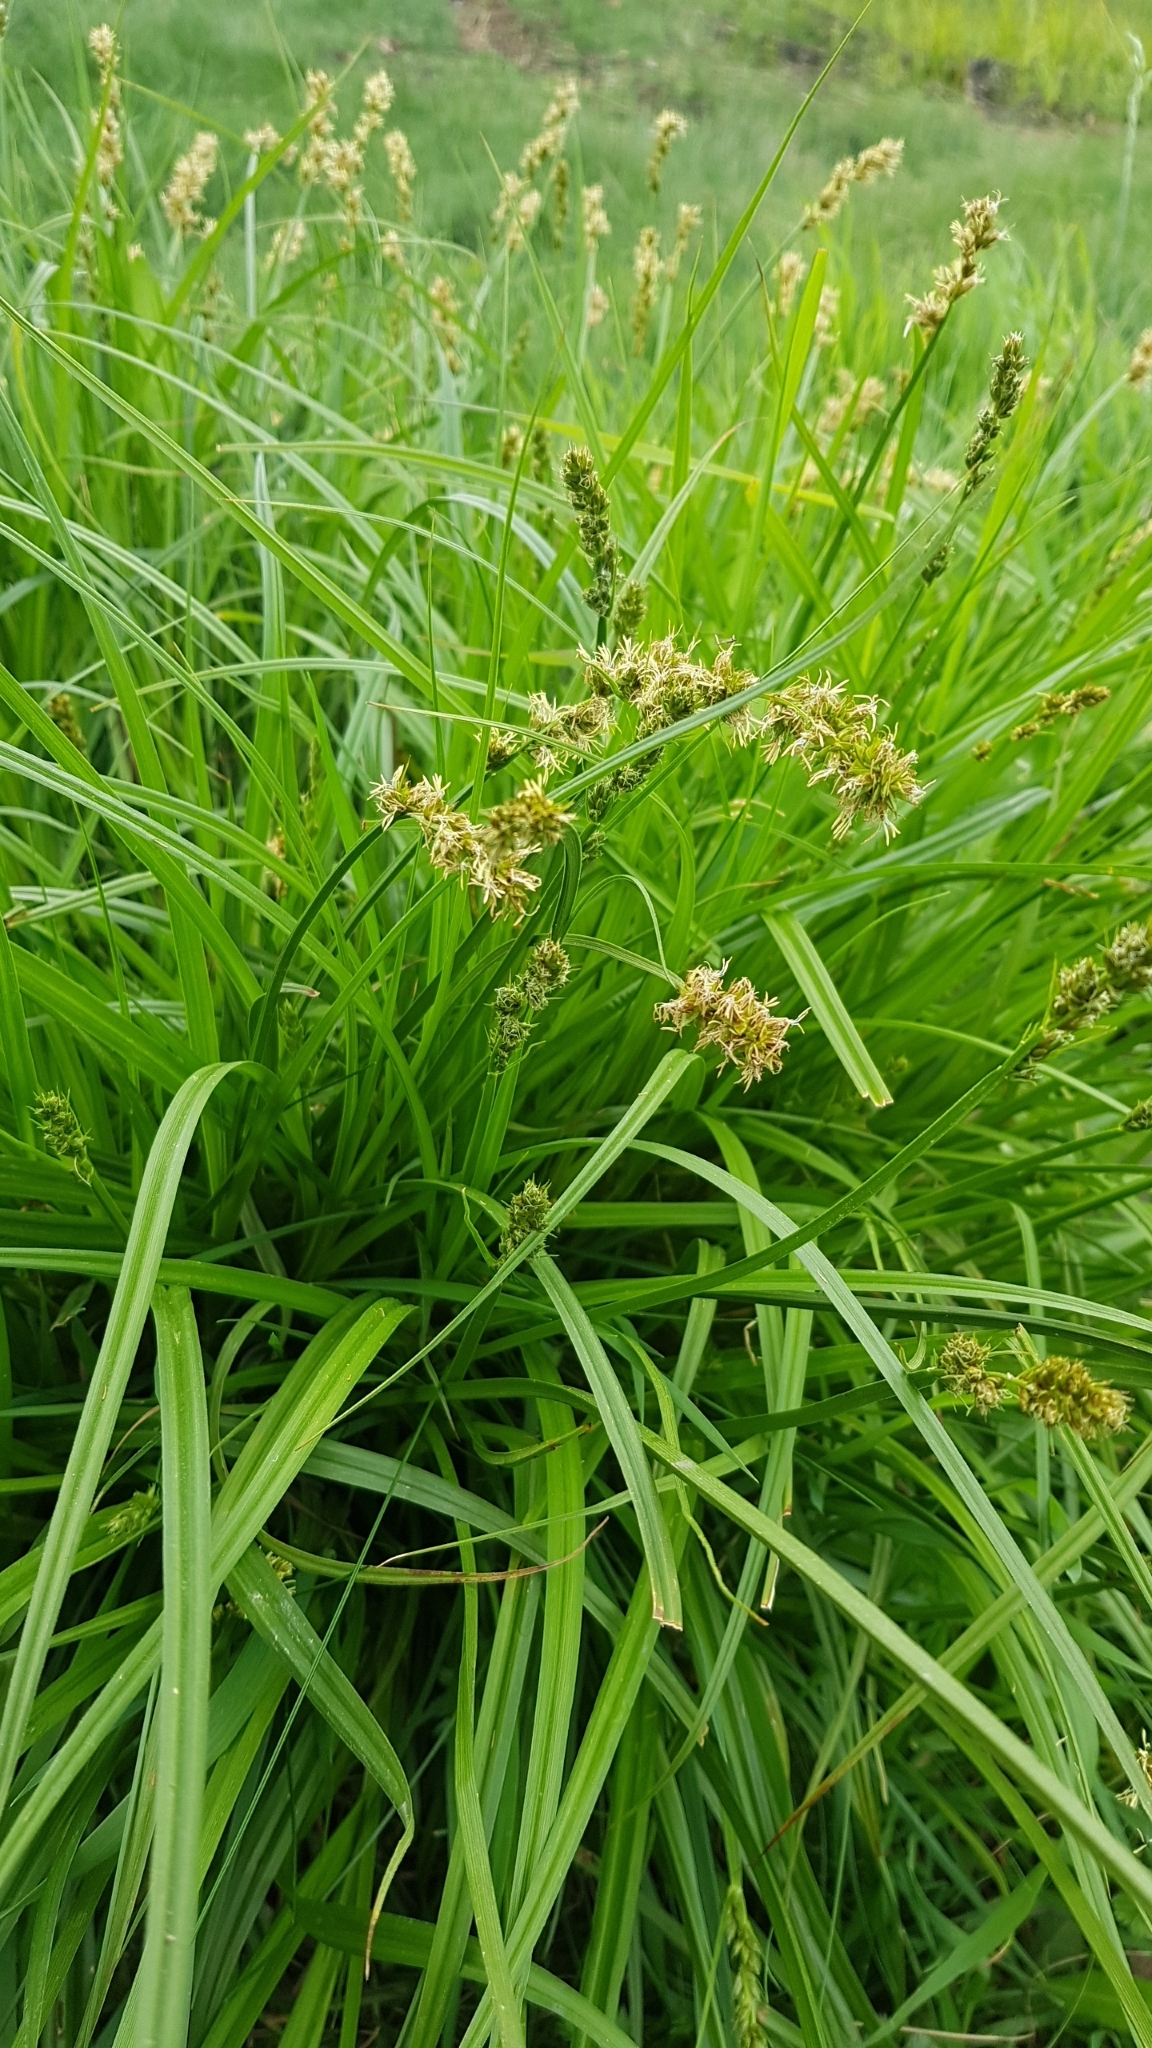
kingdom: Plantae
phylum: Tracheophyta
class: Liliopsida
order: Poales
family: Cyperaceae
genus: Carex
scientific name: Carex otrubae
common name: False fox-sedge
